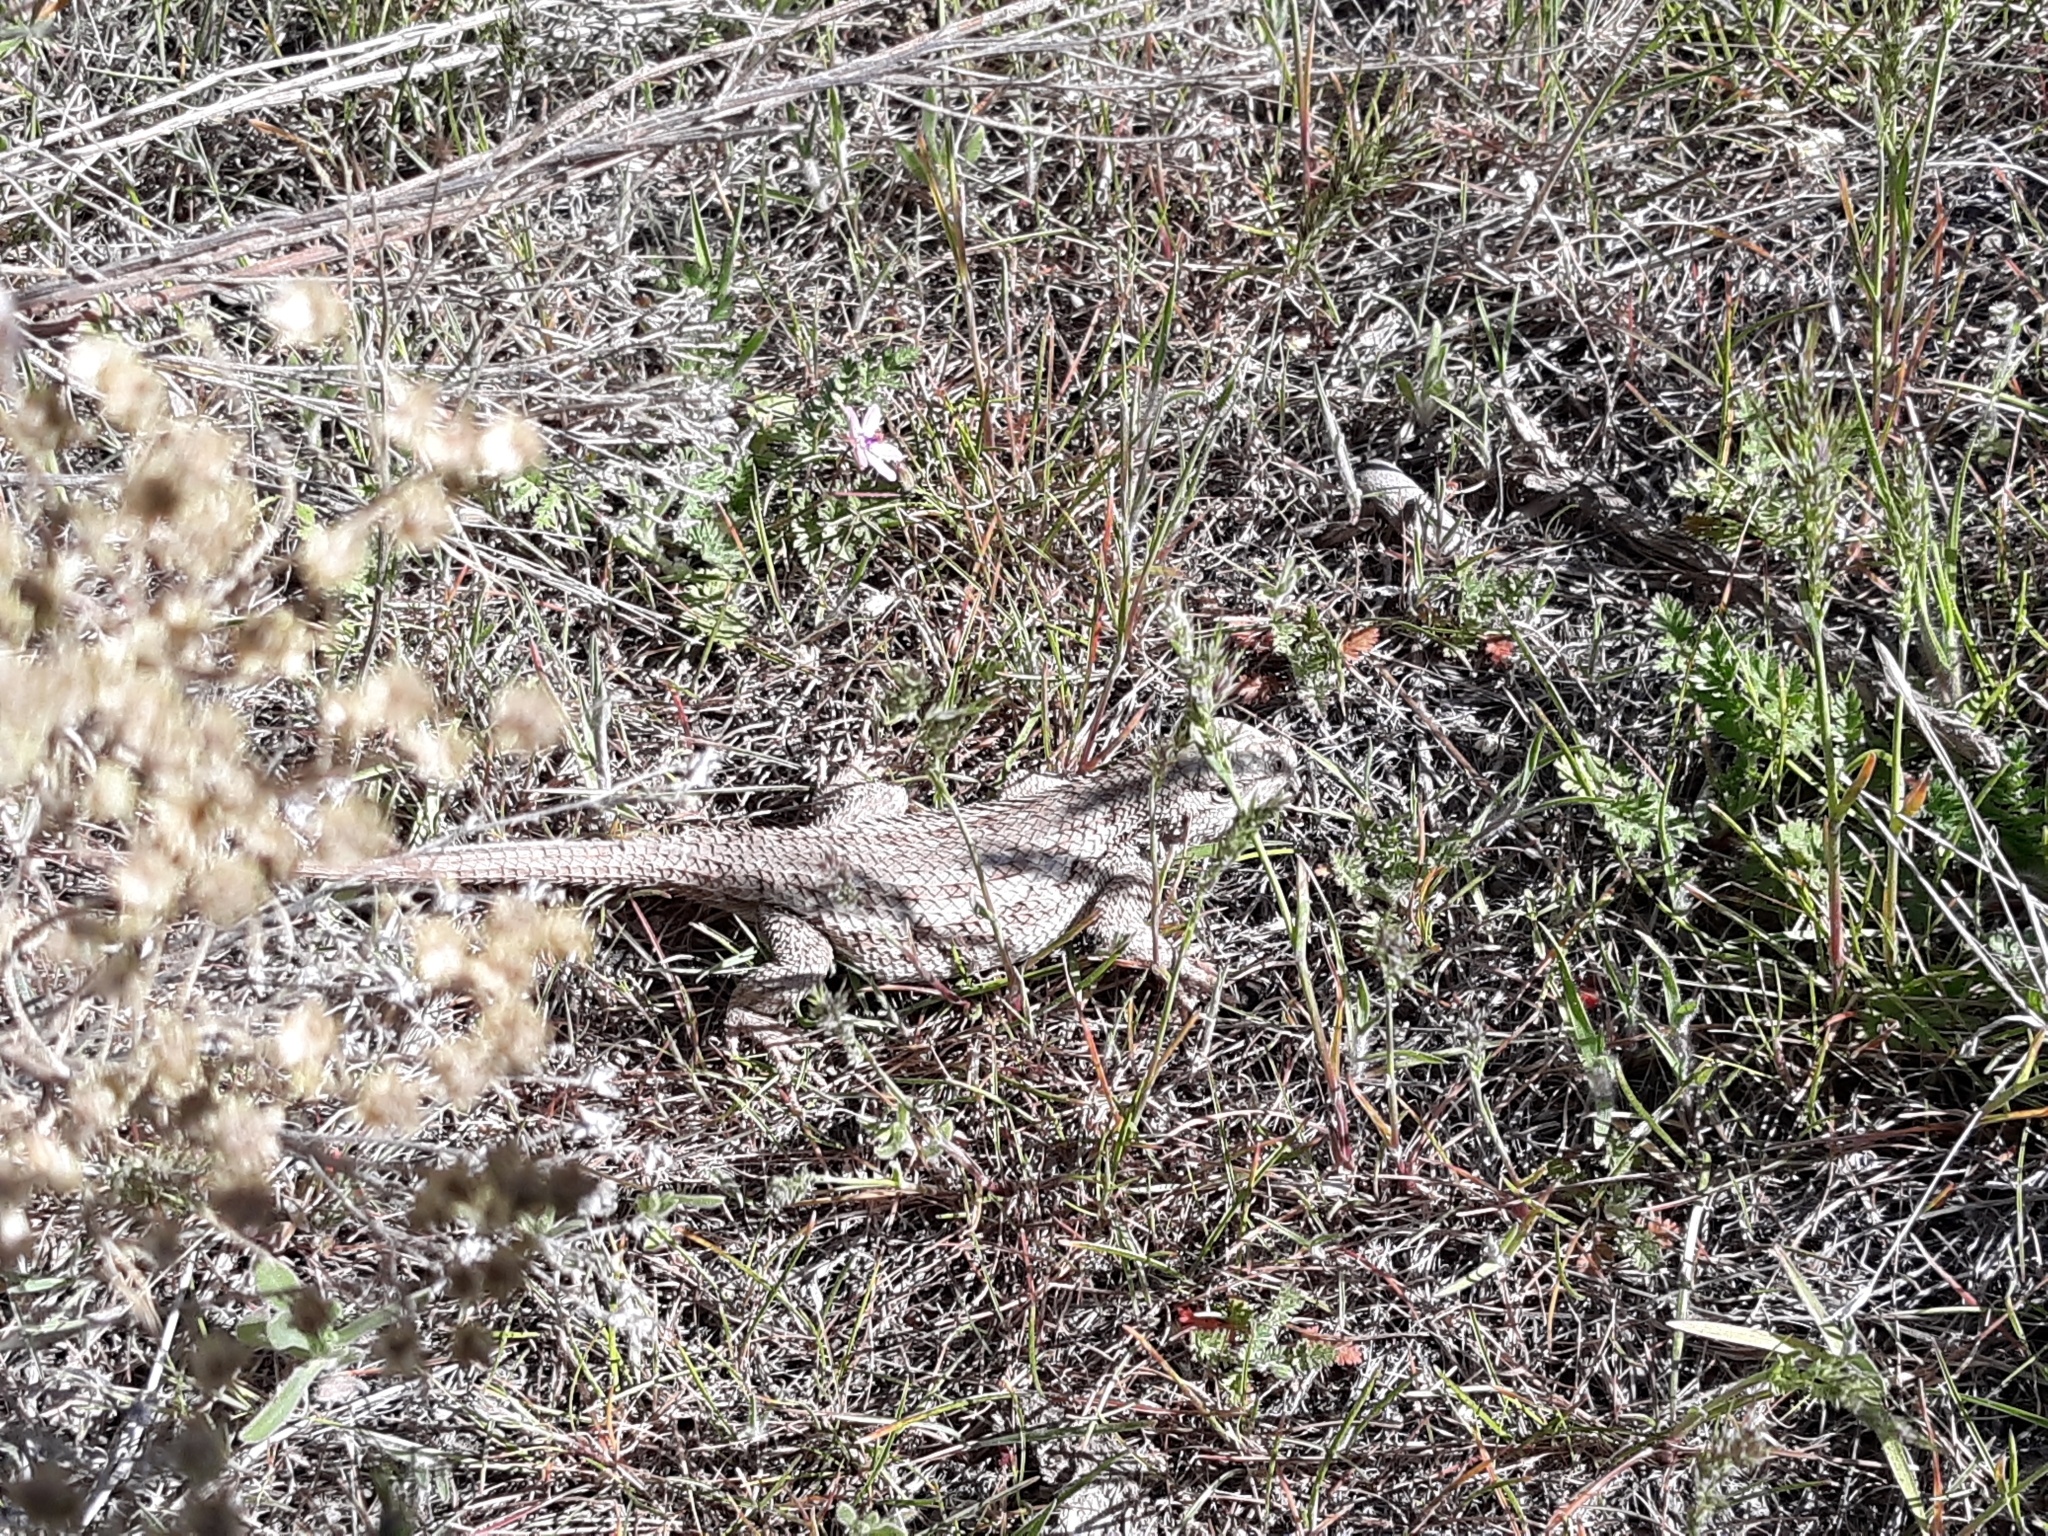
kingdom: Animalia
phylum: Chordata
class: Squamata
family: Phrynosomatidae
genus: Sceloporus
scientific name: Sceloporus occidentalis
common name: Western fence lizard
